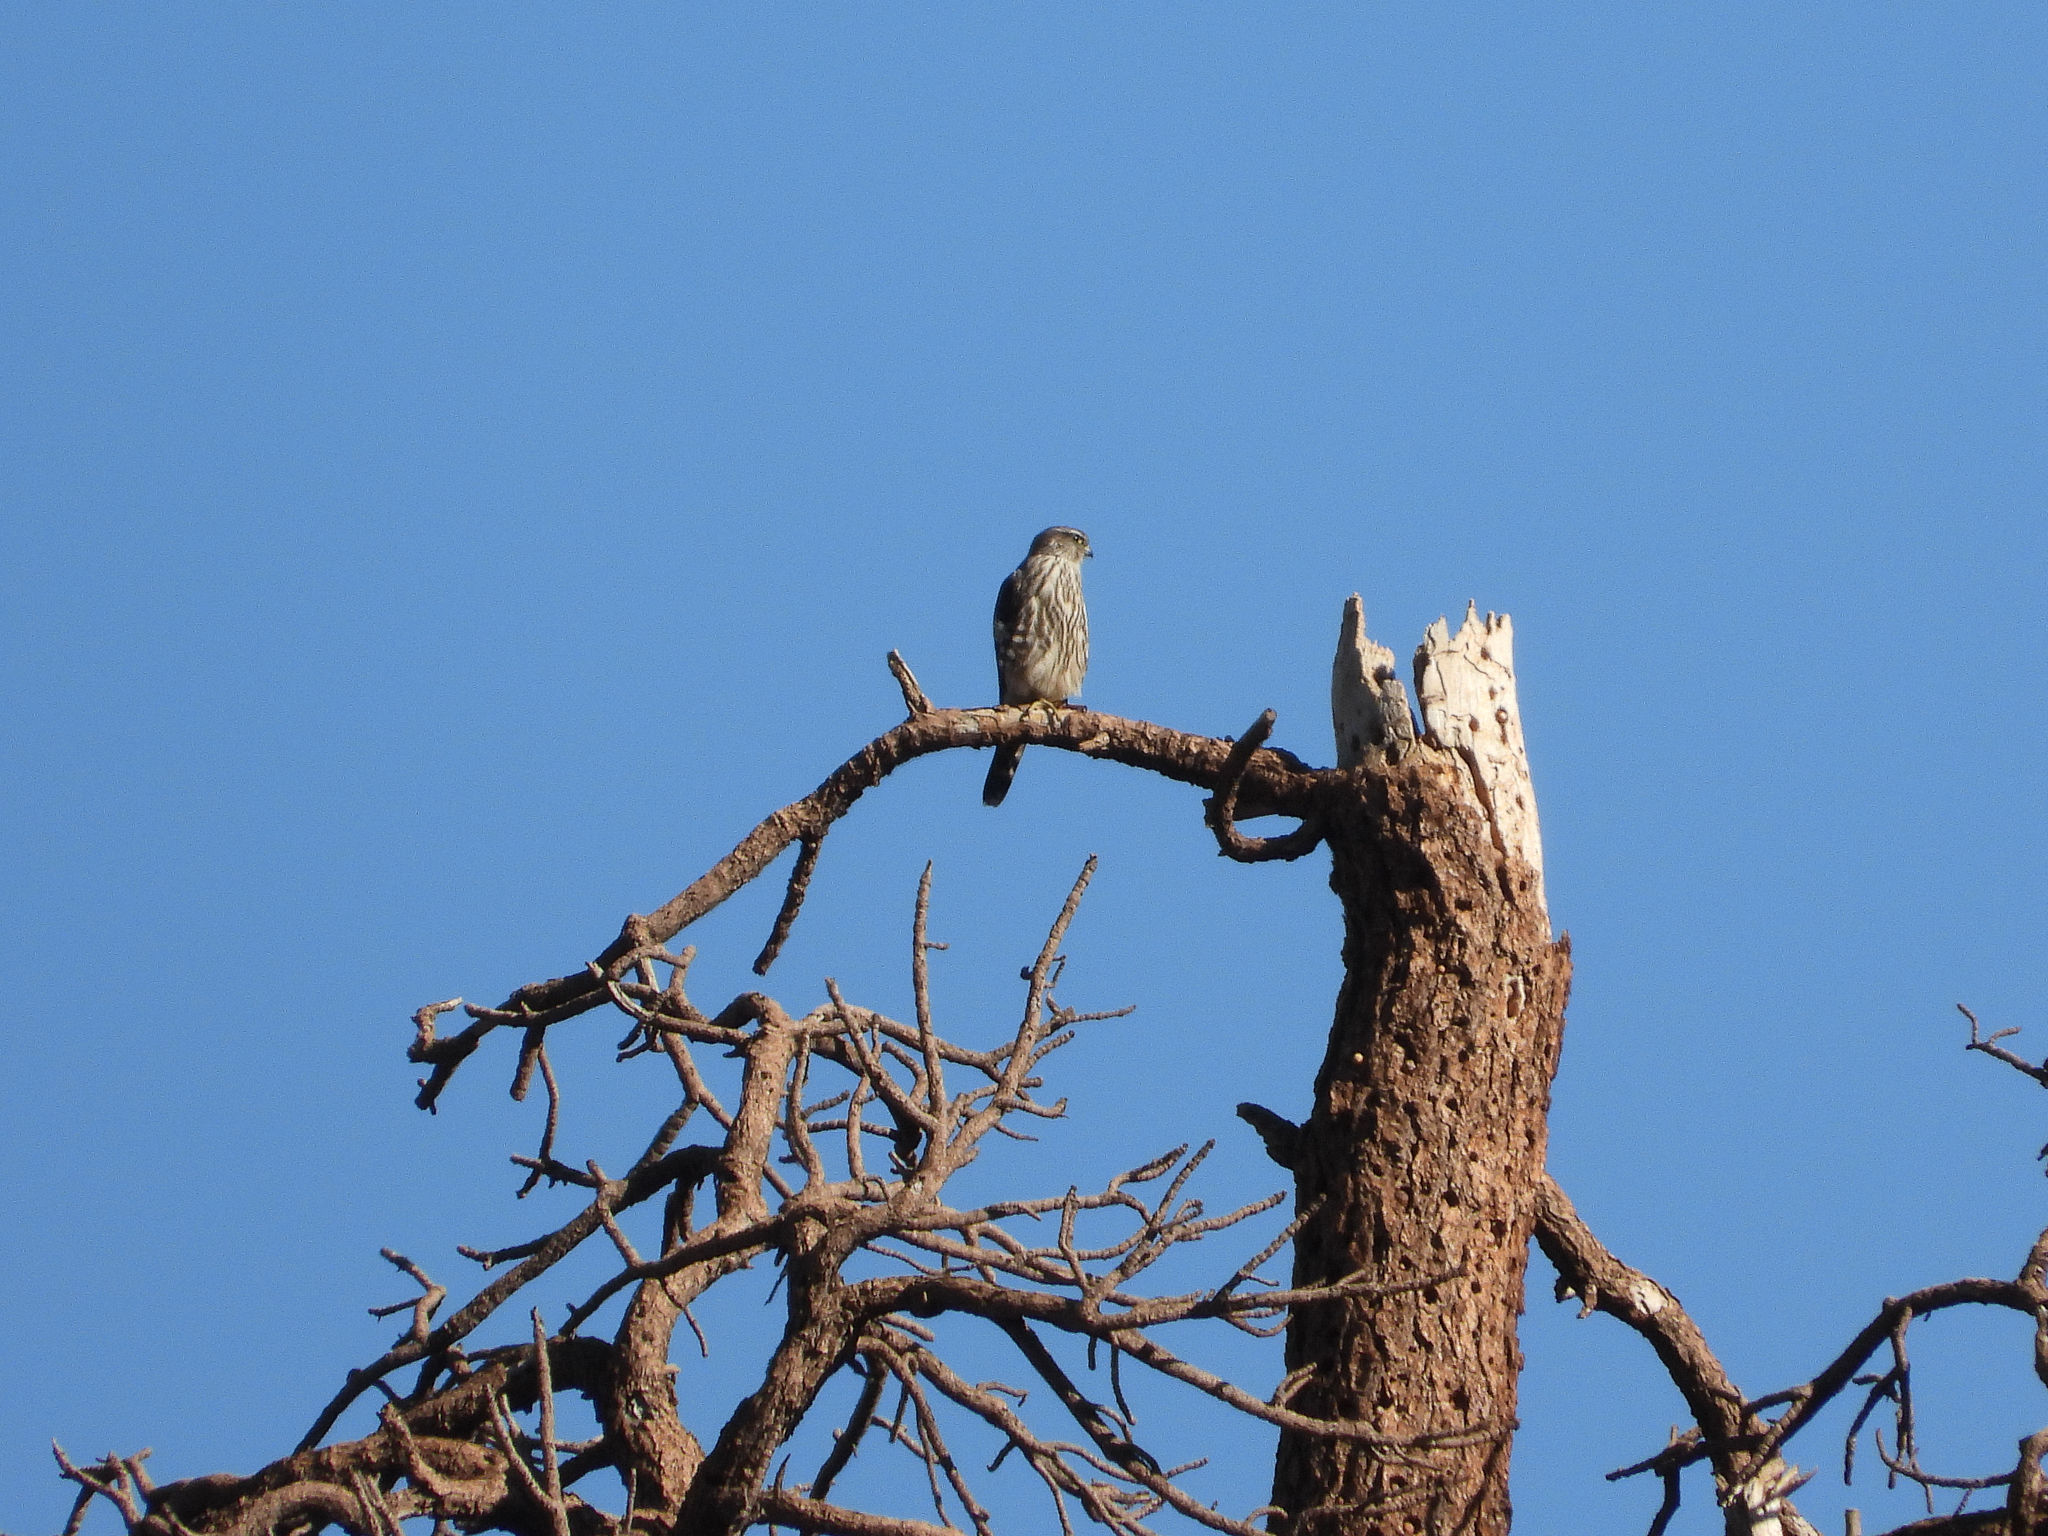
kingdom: Animalia
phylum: Chordata
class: Aves
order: Falconiformes
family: Falconidae
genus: Falco
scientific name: Falco columbarius
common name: Merlin
